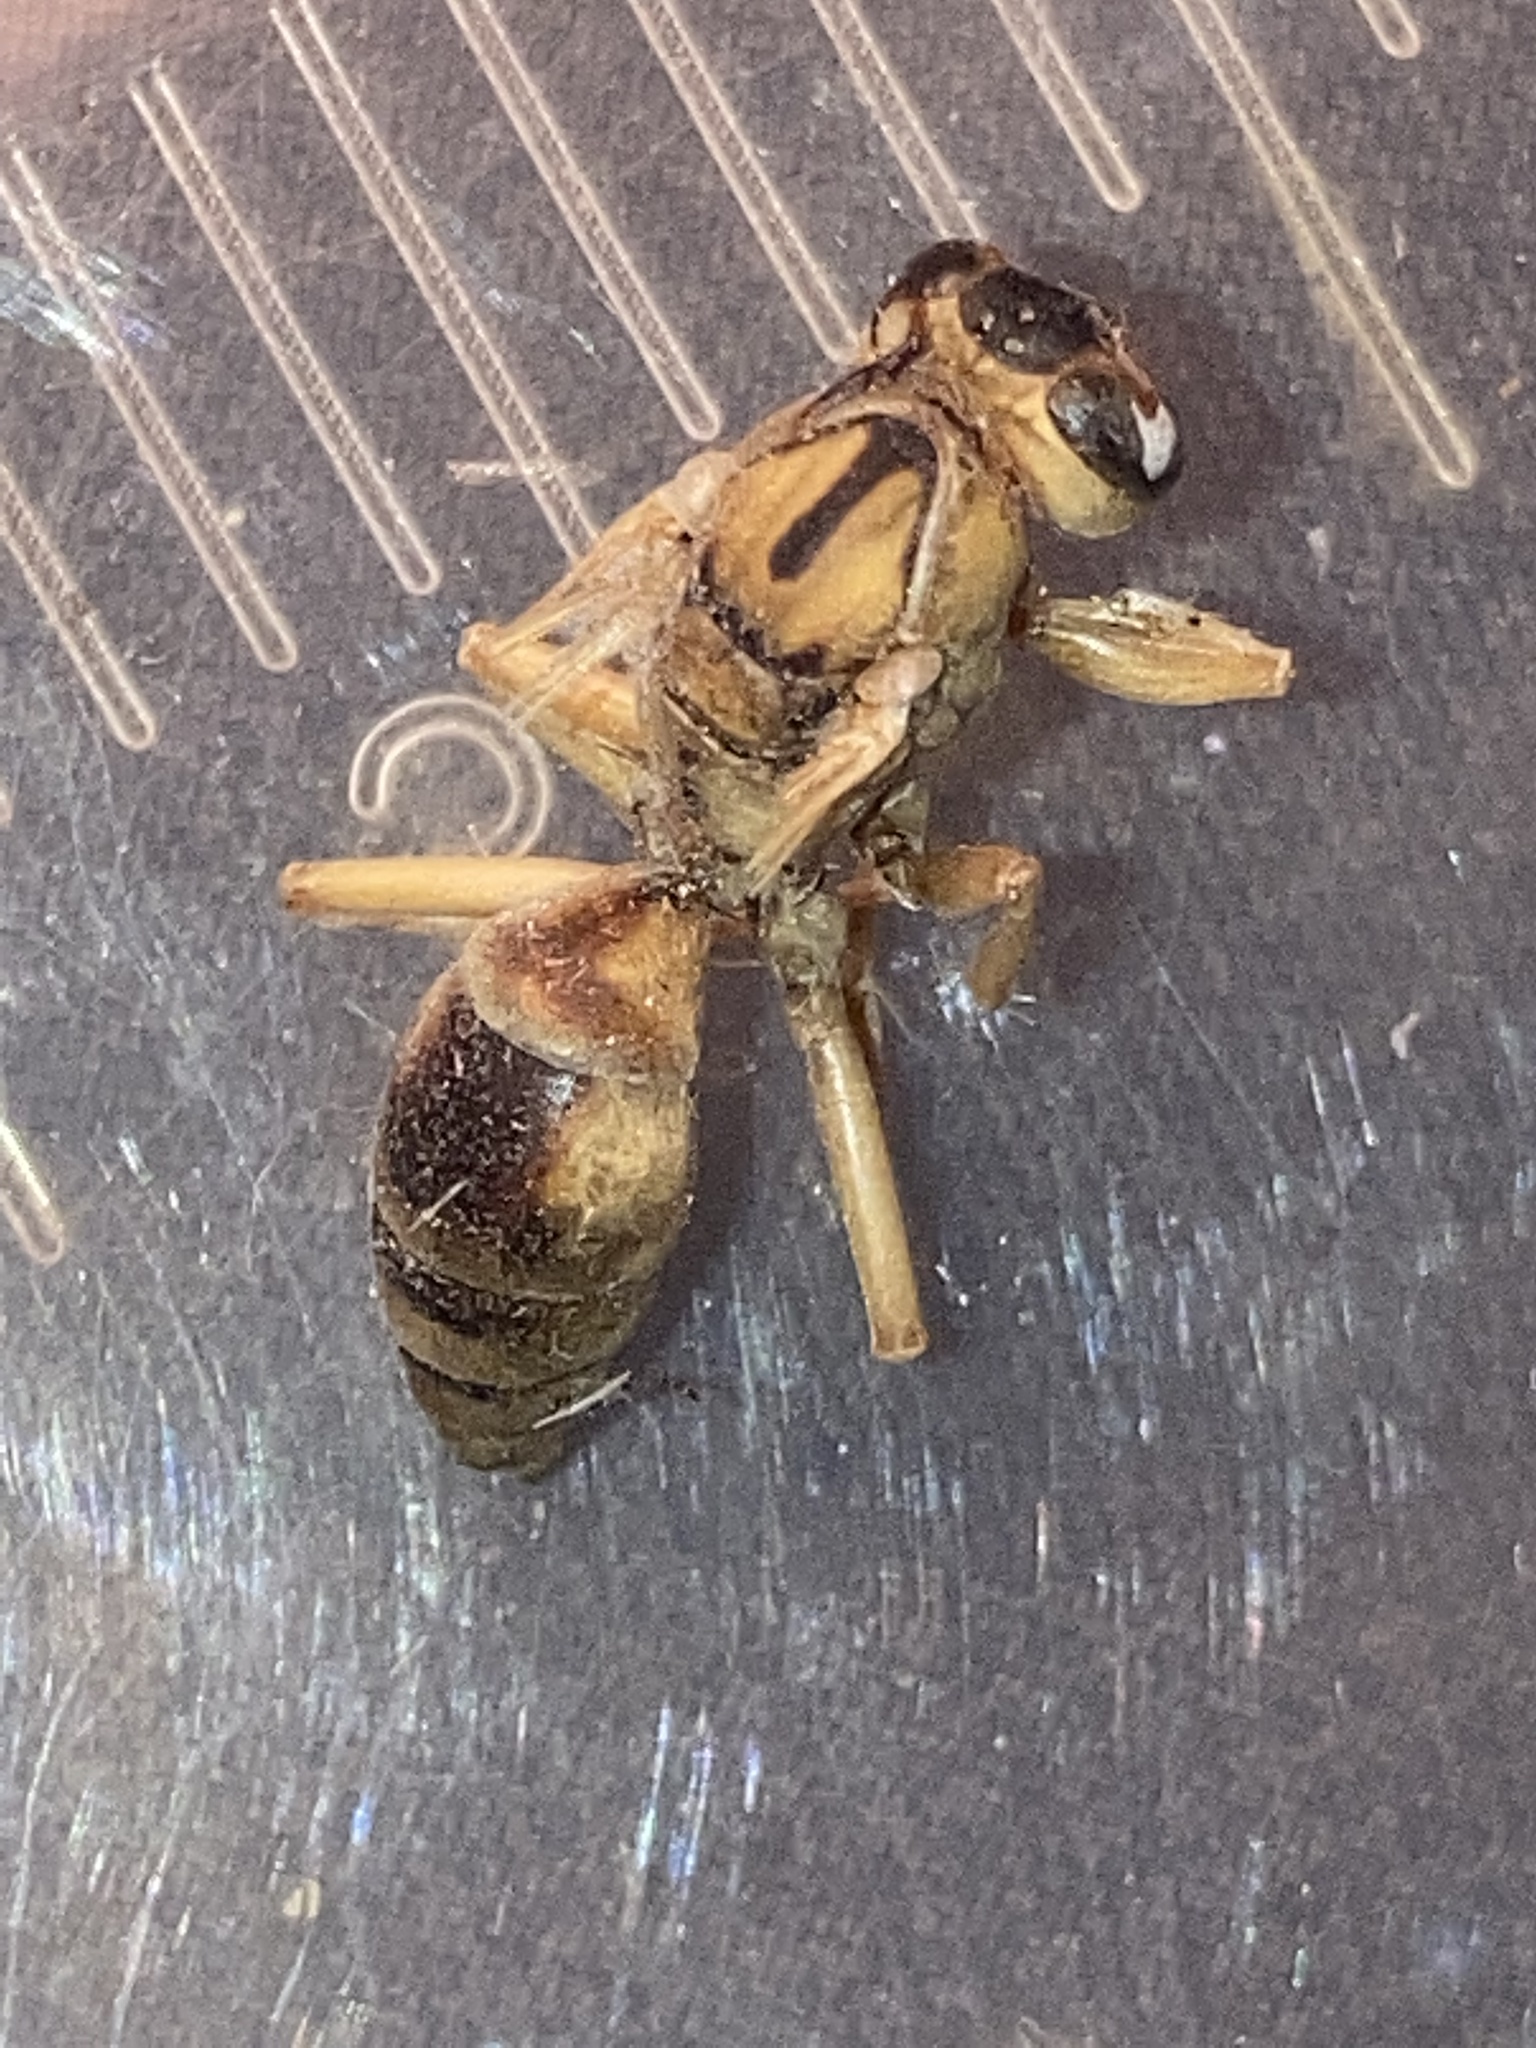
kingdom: Animalia
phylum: Arthropoda
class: Insecta
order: Hymenoptera
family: Vespidae
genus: Fuscopolistes
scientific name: Fuscopolistes
